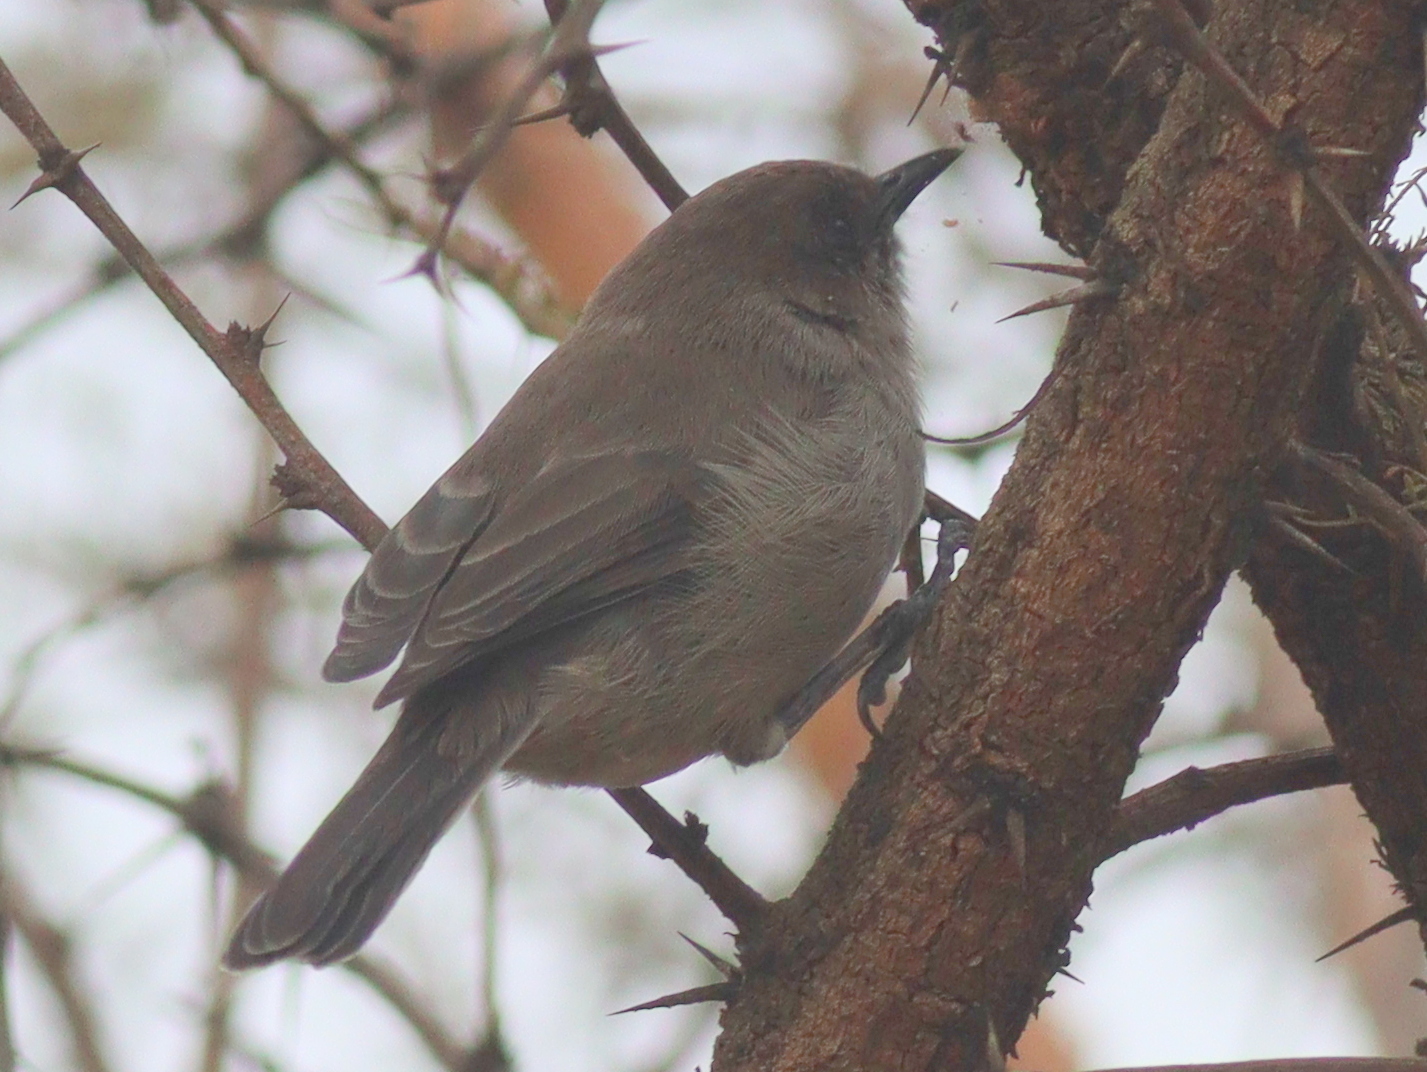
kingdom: Animalia
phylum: Chordata
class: Aves
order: Passeriformes
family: Sylviidae
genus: Sylvia
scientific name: Sylvia lugens
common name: Brown parisoma
